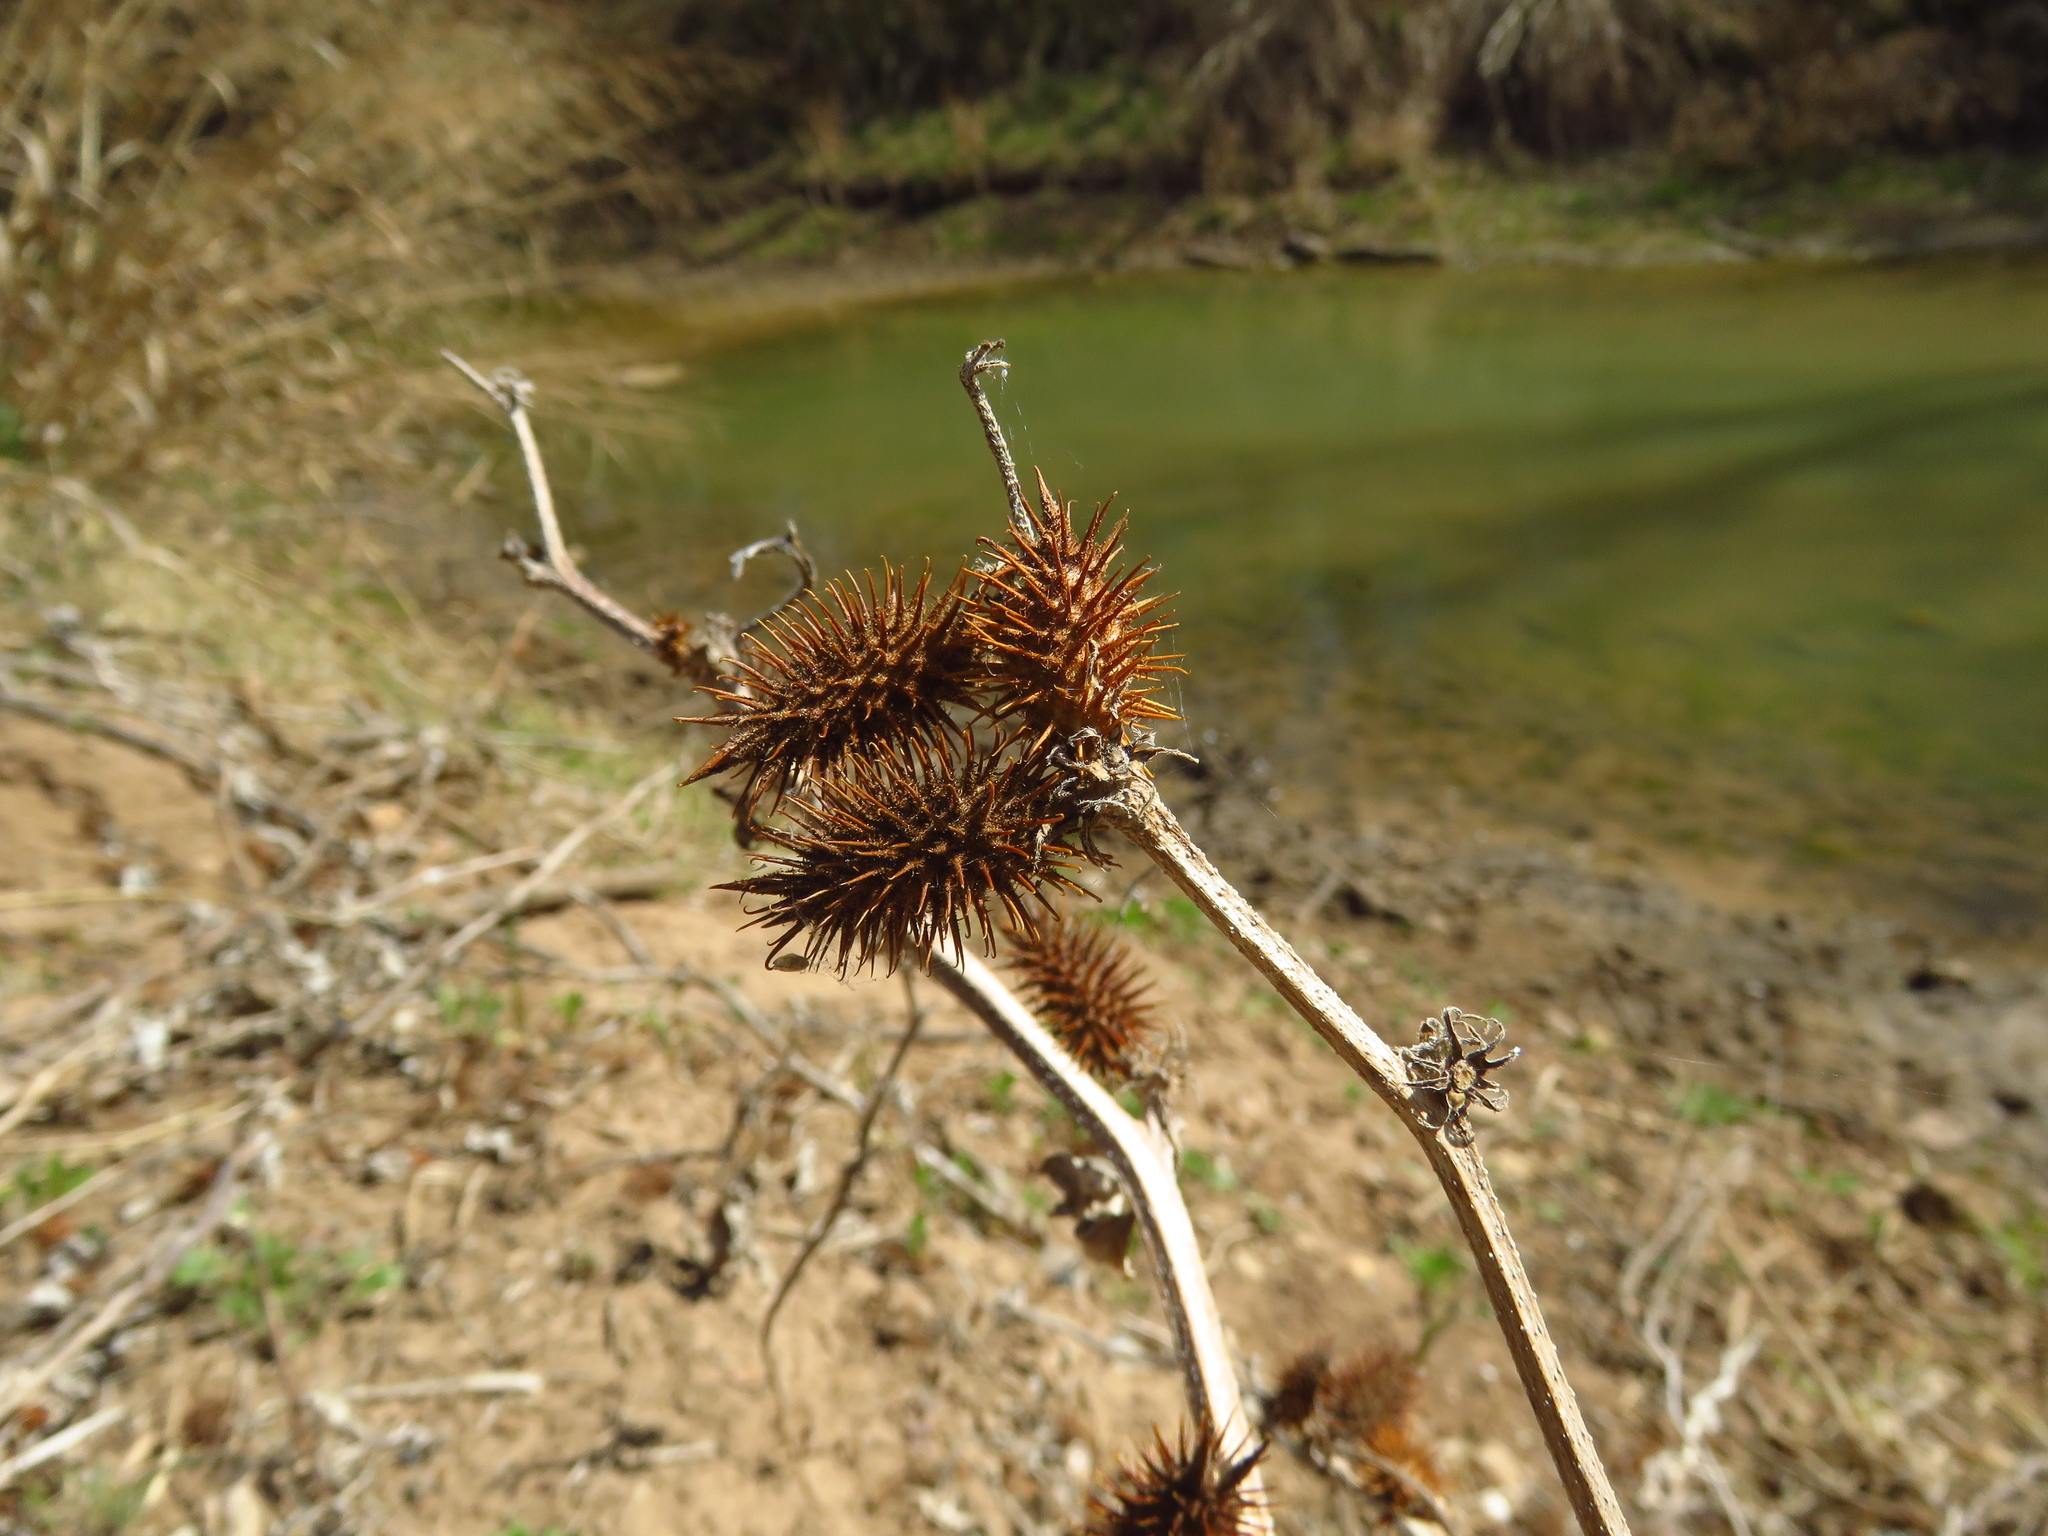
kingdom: Plantae
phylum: Tracheophyta
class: Magnoliopsida
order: Asterales
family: Asteraceae
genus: Xanthium
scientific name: Xanthium strumarium
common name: Rough cocklebur
